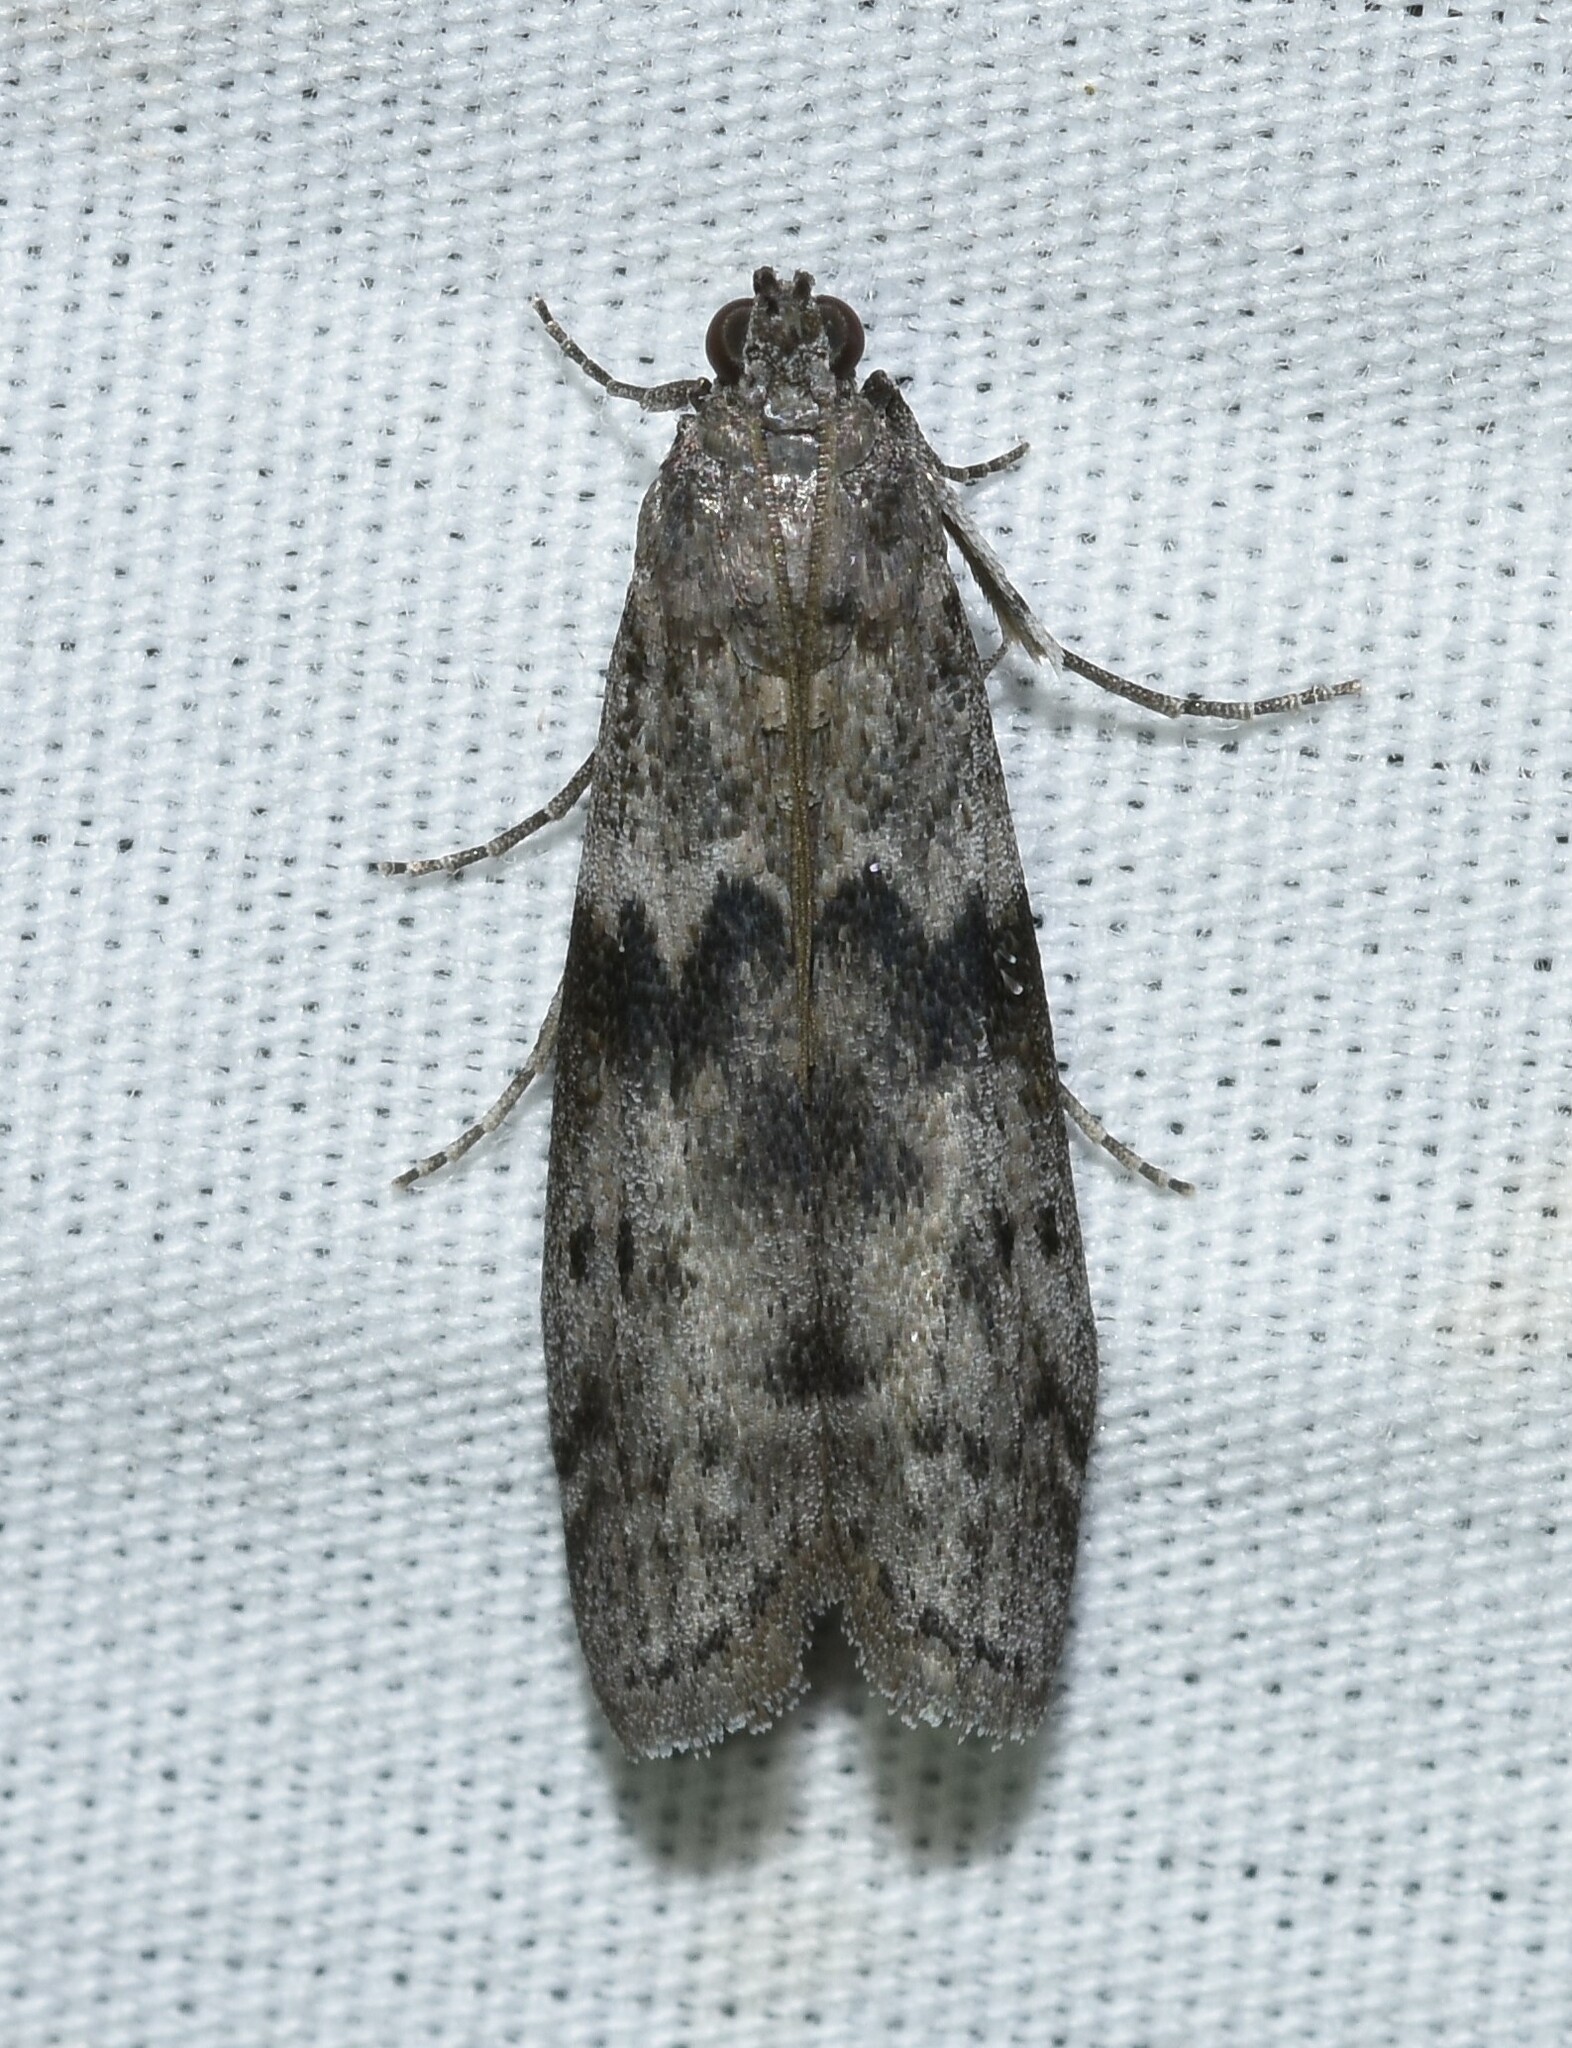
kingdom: Animalia
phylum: Arthropoda
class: Insecta
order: Lepidoptera
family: Pyralidae
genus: Ephestia
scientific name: Ephestia kuehniella
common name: Mediterranean flour moth
